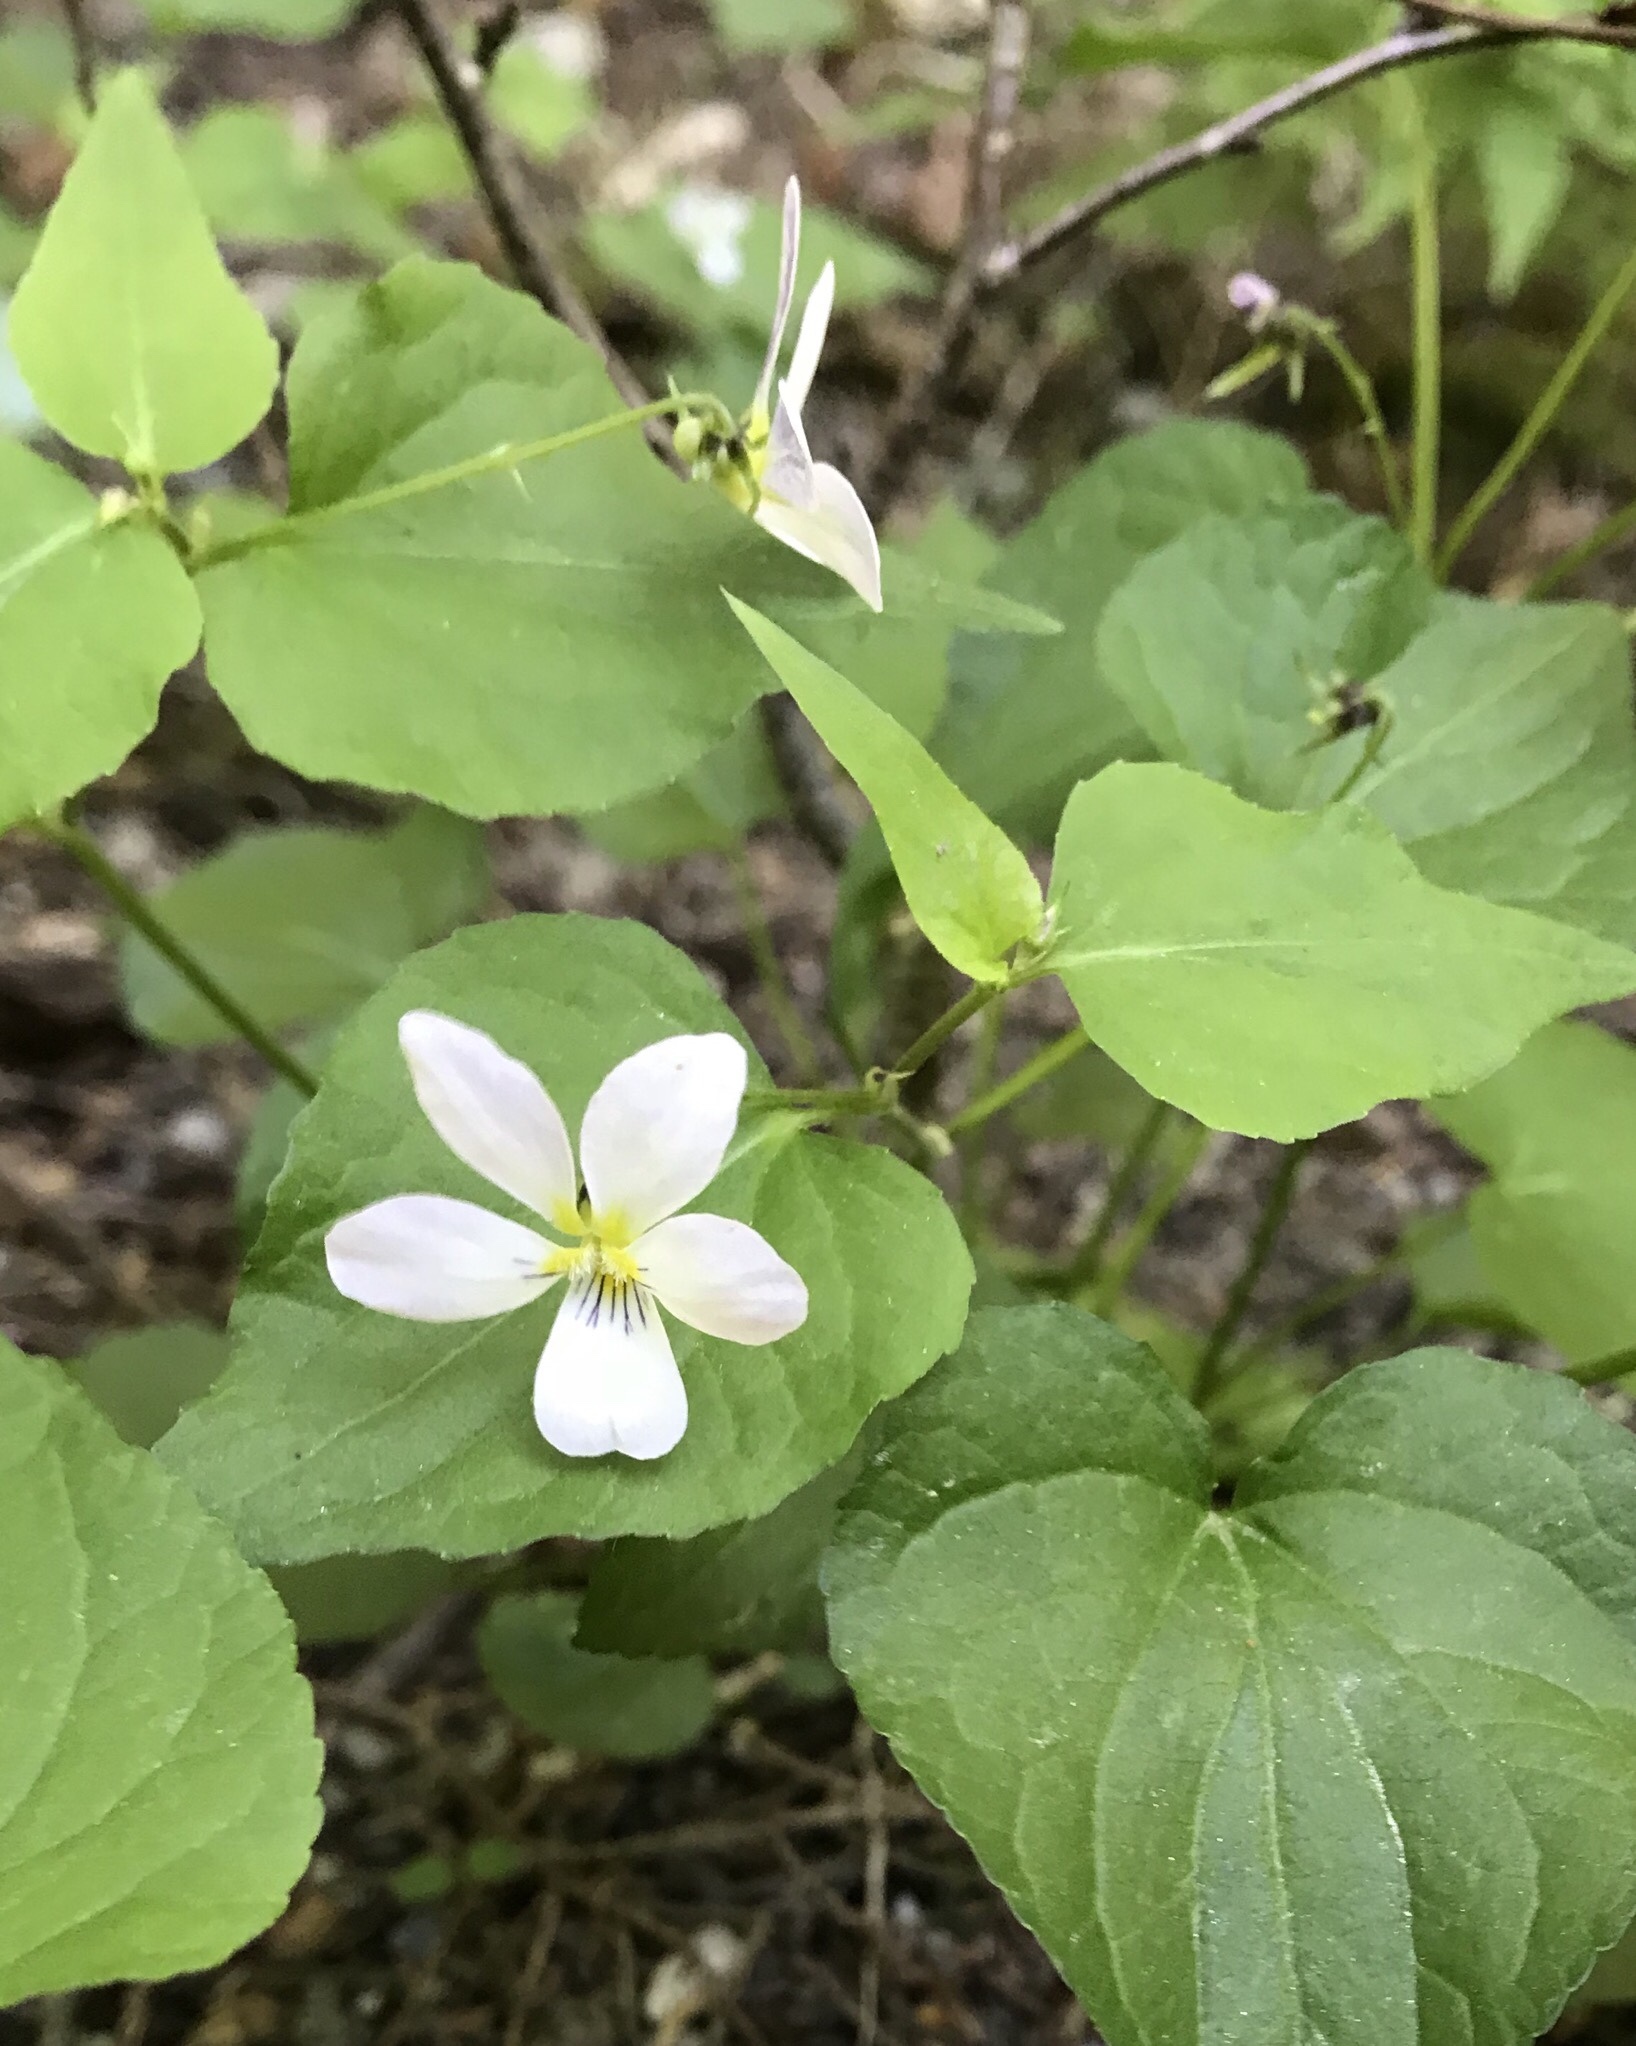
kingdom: Plantae
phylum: Tracheophyta
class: Magnoliopsida
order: Malpighiales
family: Violaceae
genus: Viola
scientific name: Viola canadensis
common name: Canada violet
